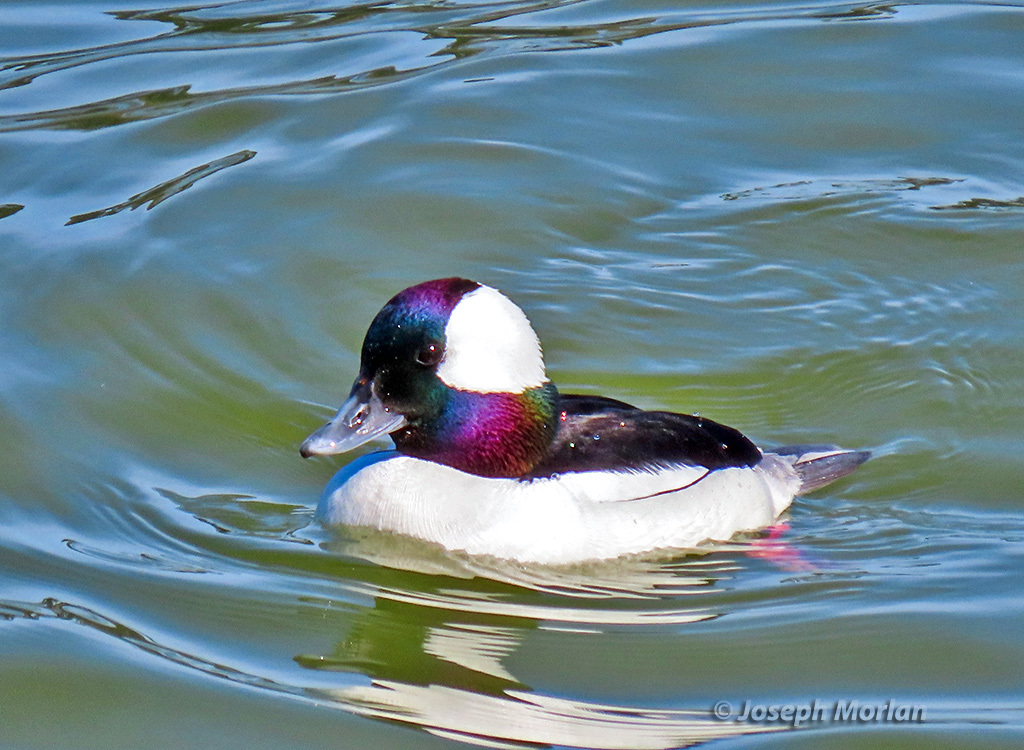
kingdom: Animalia
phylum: Chordata
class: Aves
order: Anseriformes
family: Anatidae
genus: Bucephala
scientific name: Bucephala albeola
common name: Bufflehead
